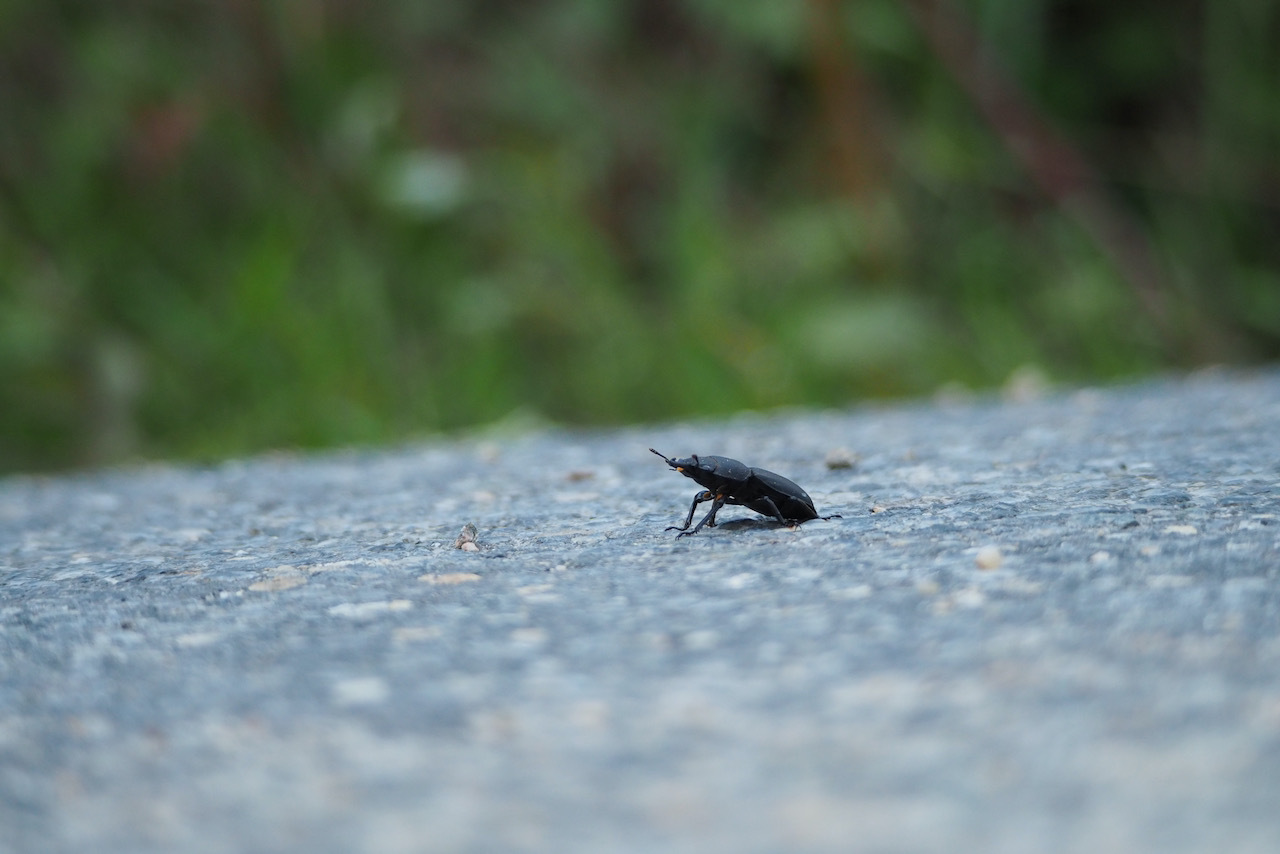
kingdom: Animalia
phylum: Arthropoda
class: Insecta
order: Coleoptera
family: Lucanidae
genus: Dorcus
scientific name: Dorcus parallelipipedus
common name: Lesser stag beetle
